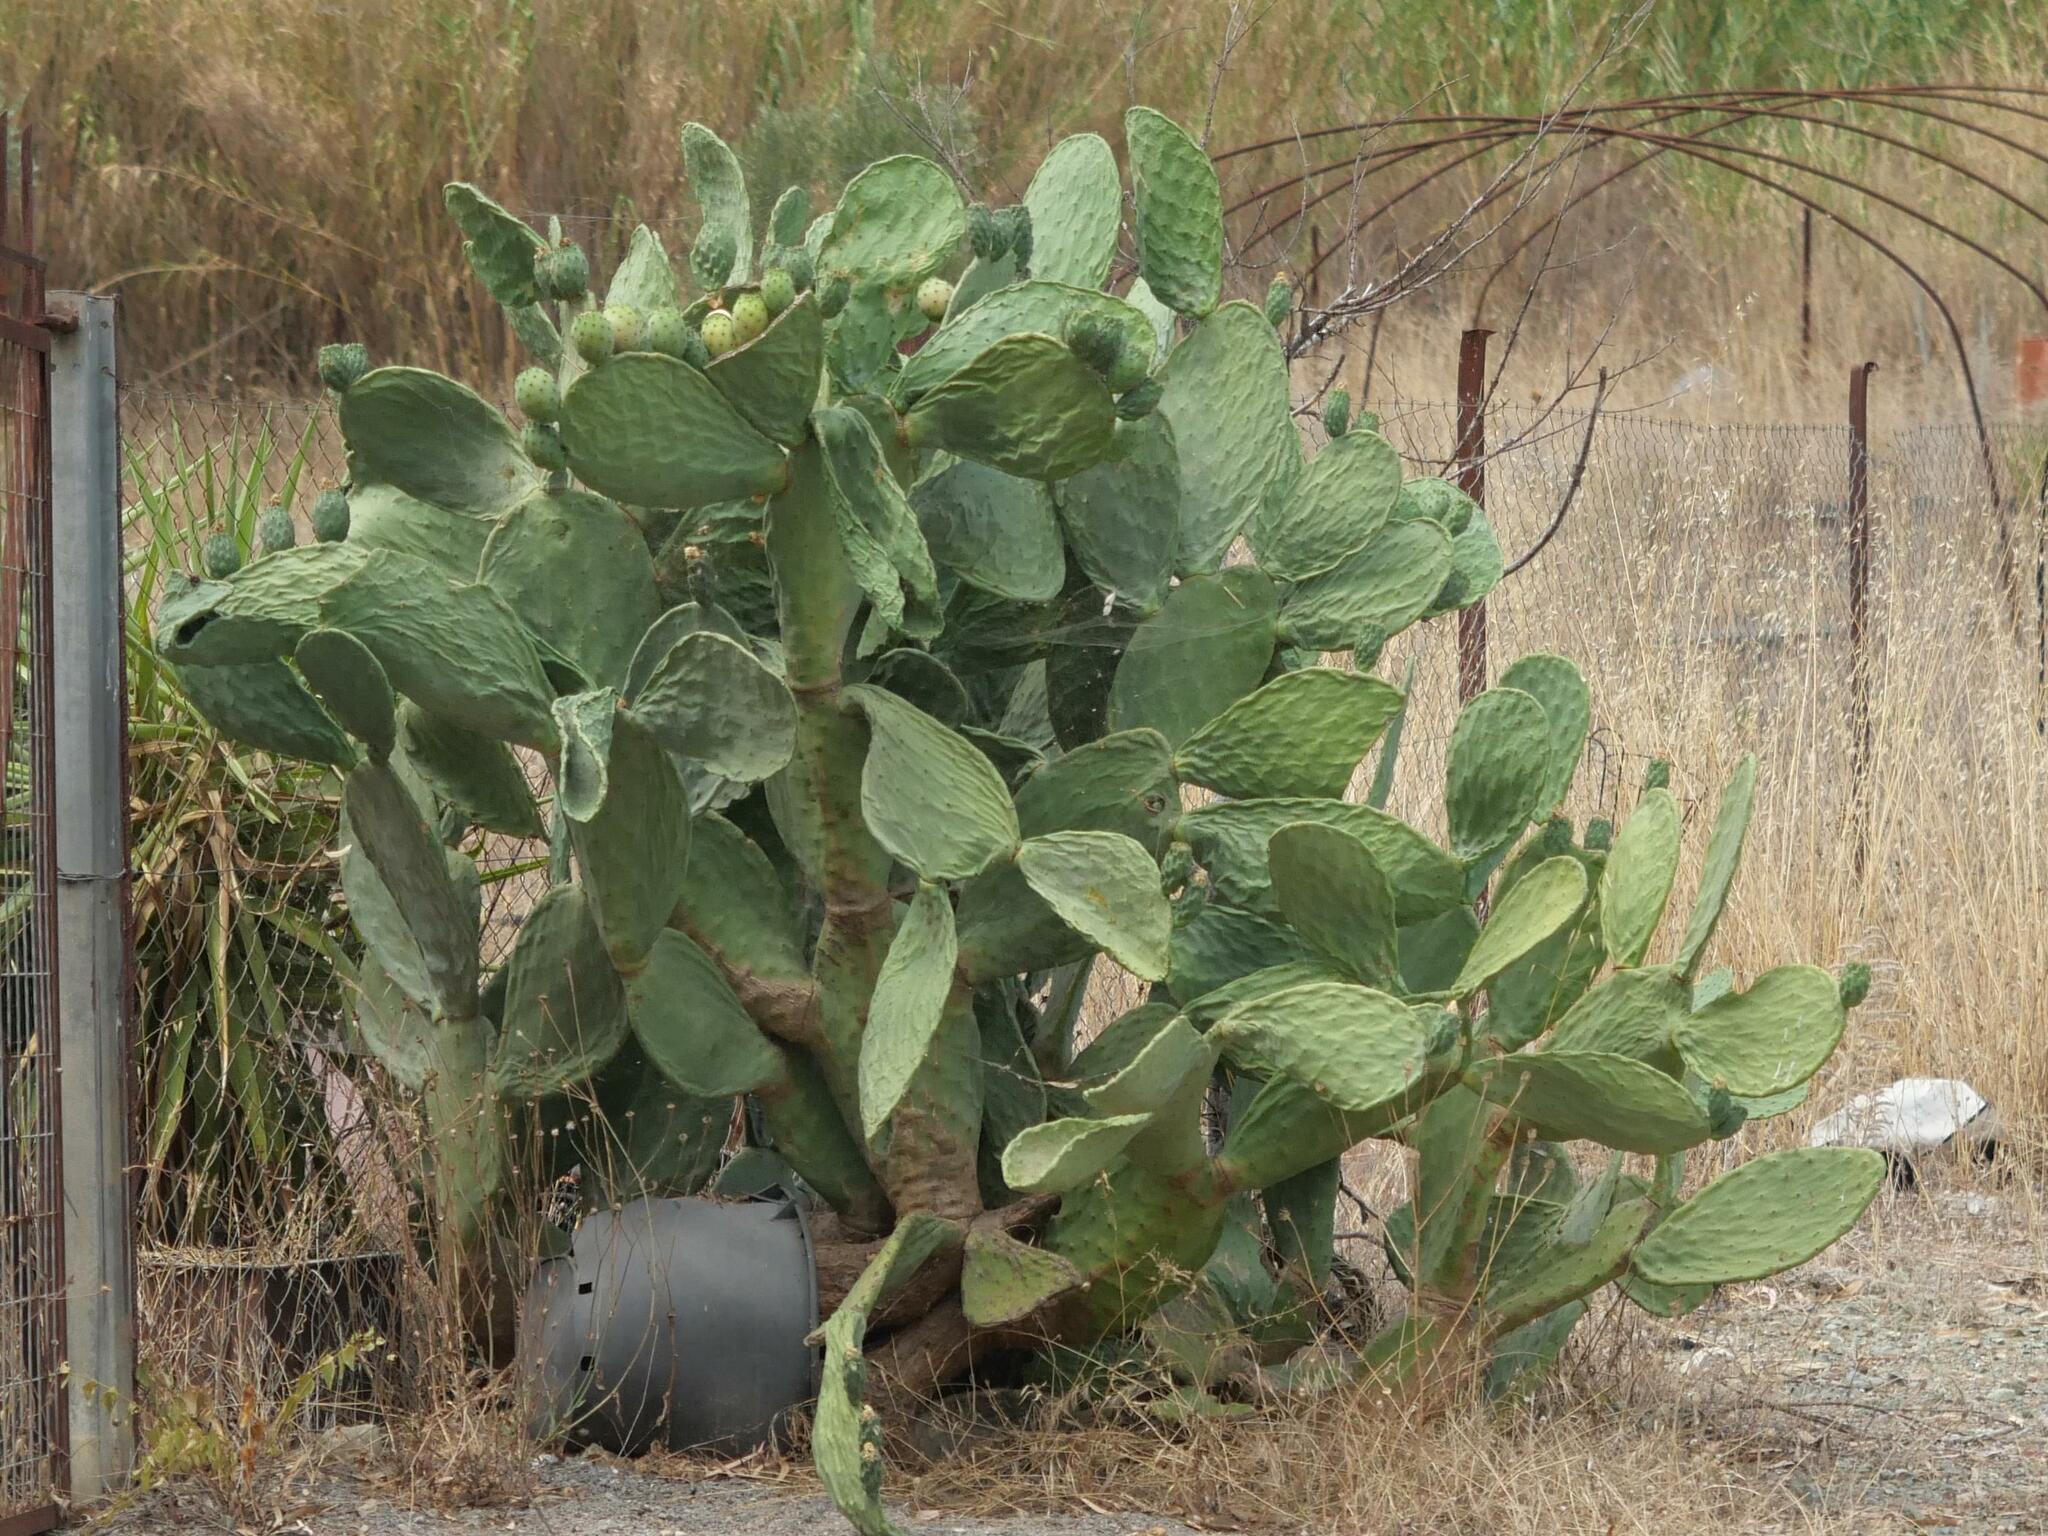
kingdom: Plantae
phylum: Tracheophyta
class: Magnoliopsida
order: Caryophyllales
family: Cactaceae
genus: Opuntia
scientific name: Opuntia ficus-indica
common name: Barbary fig
